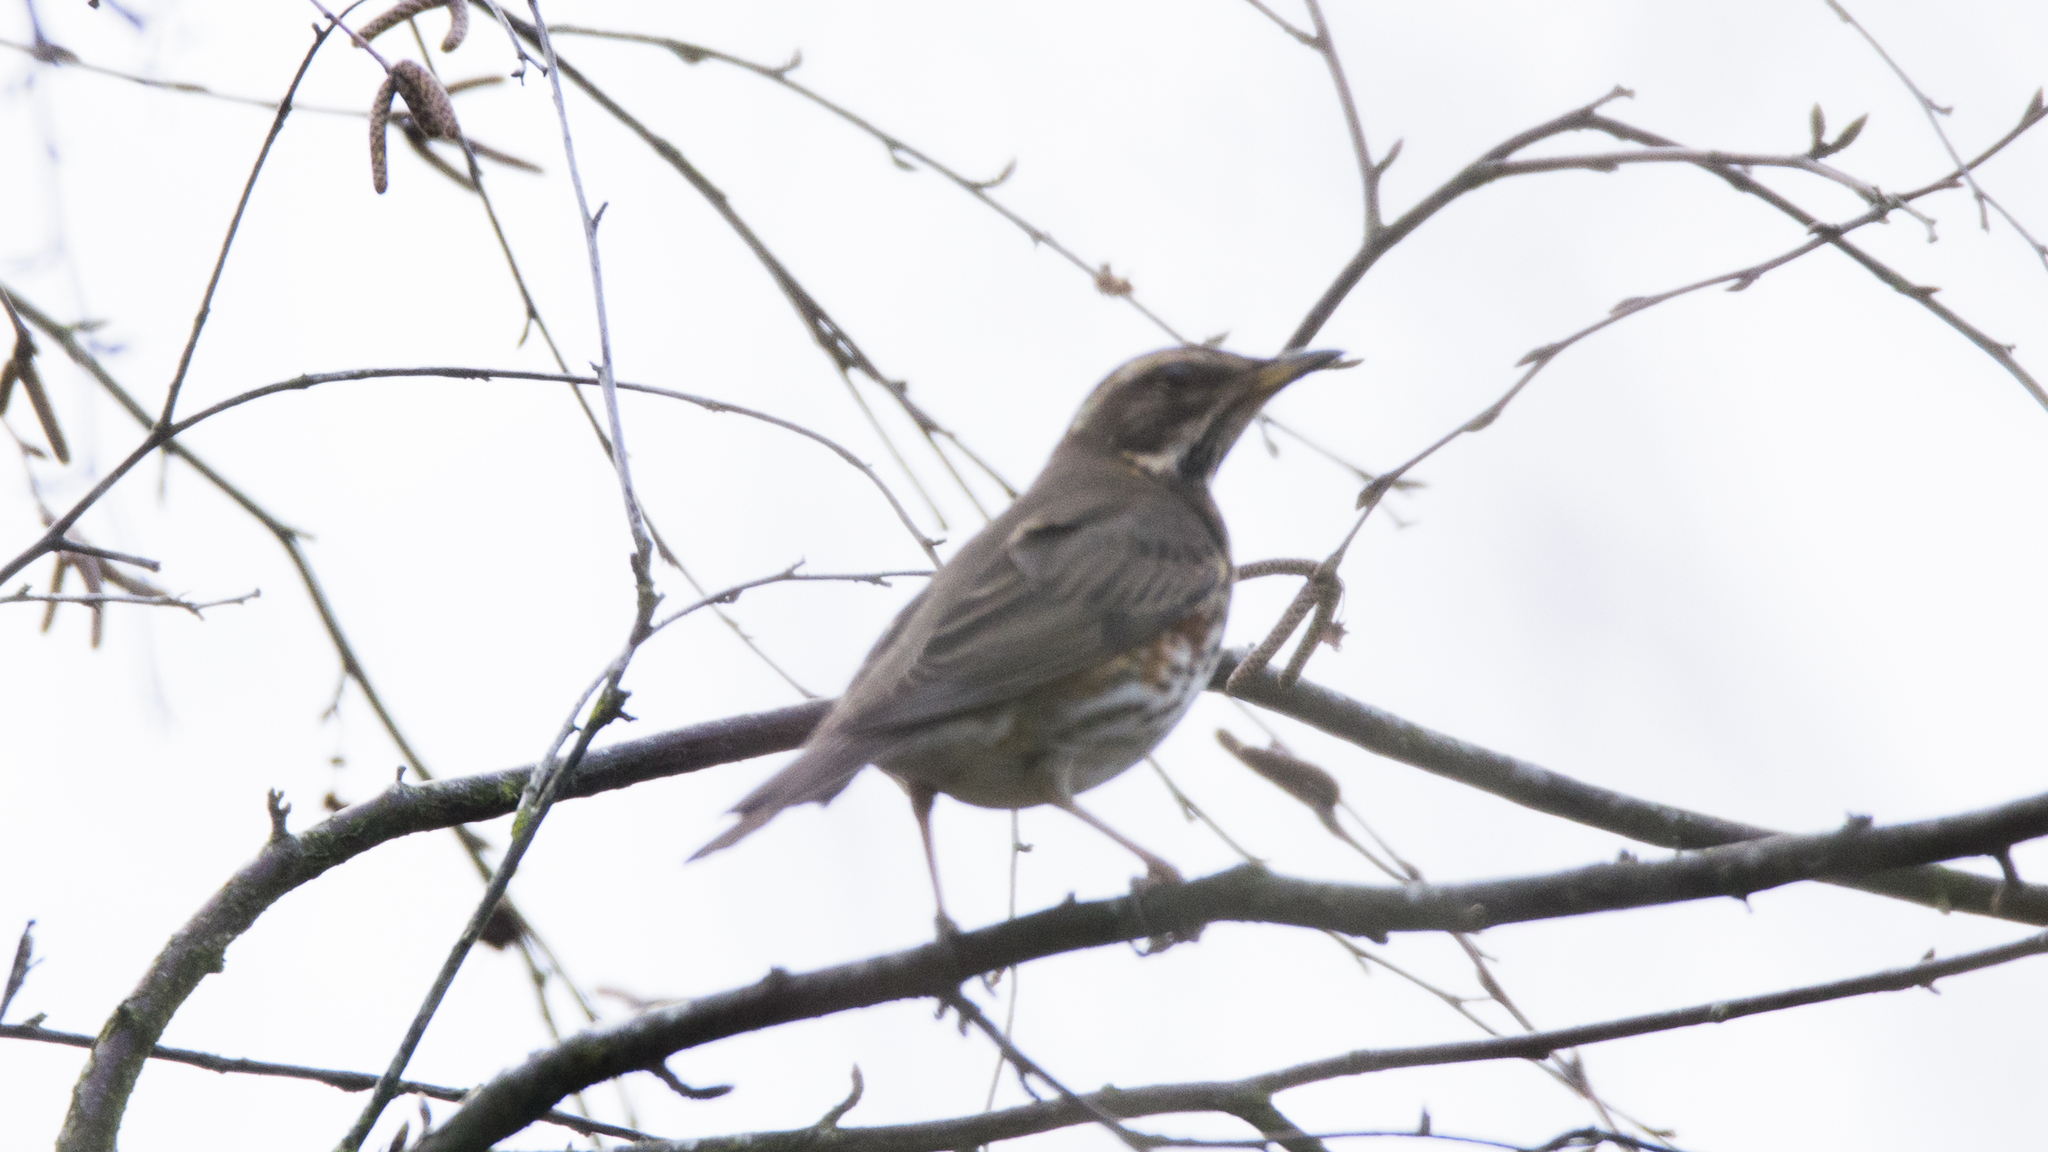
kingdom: Animalia
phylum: Chordata
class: Aves
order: Passeriformes
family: Turdidae
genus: Turdus
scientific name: Turdus iliacus
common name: Redwing
